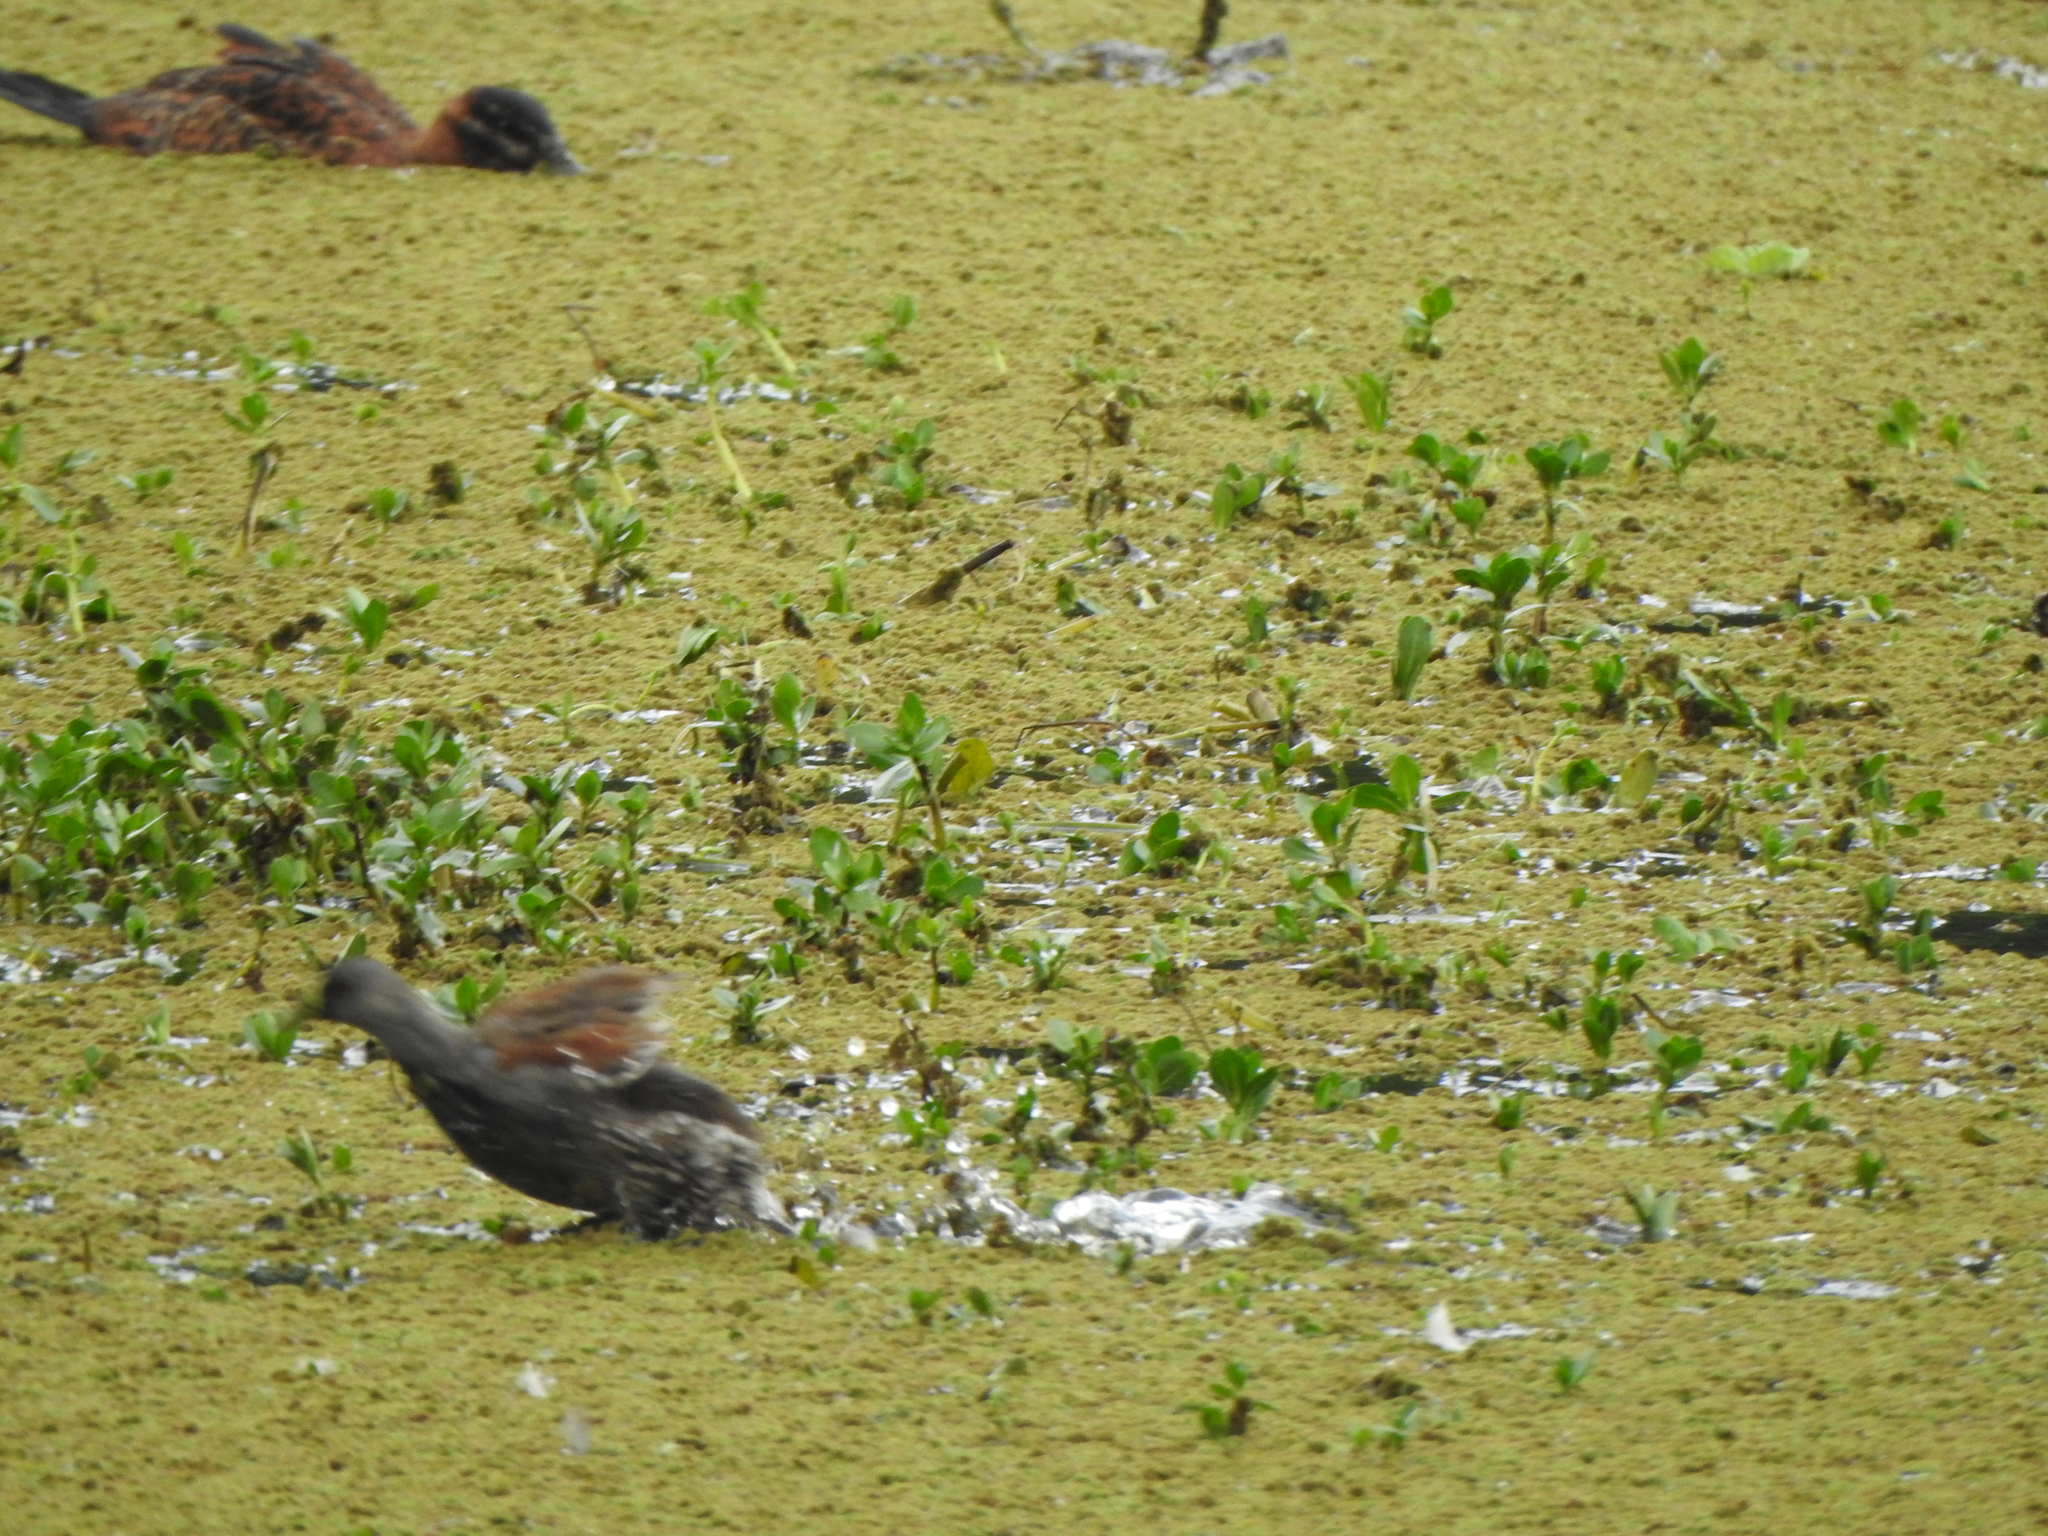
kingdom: Animalia
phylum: Chordata
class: Aves
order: Gruiformes
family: Rallidae
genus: Gallinula
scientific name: Gallinula melanops
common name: Spot-flanked gallinule
